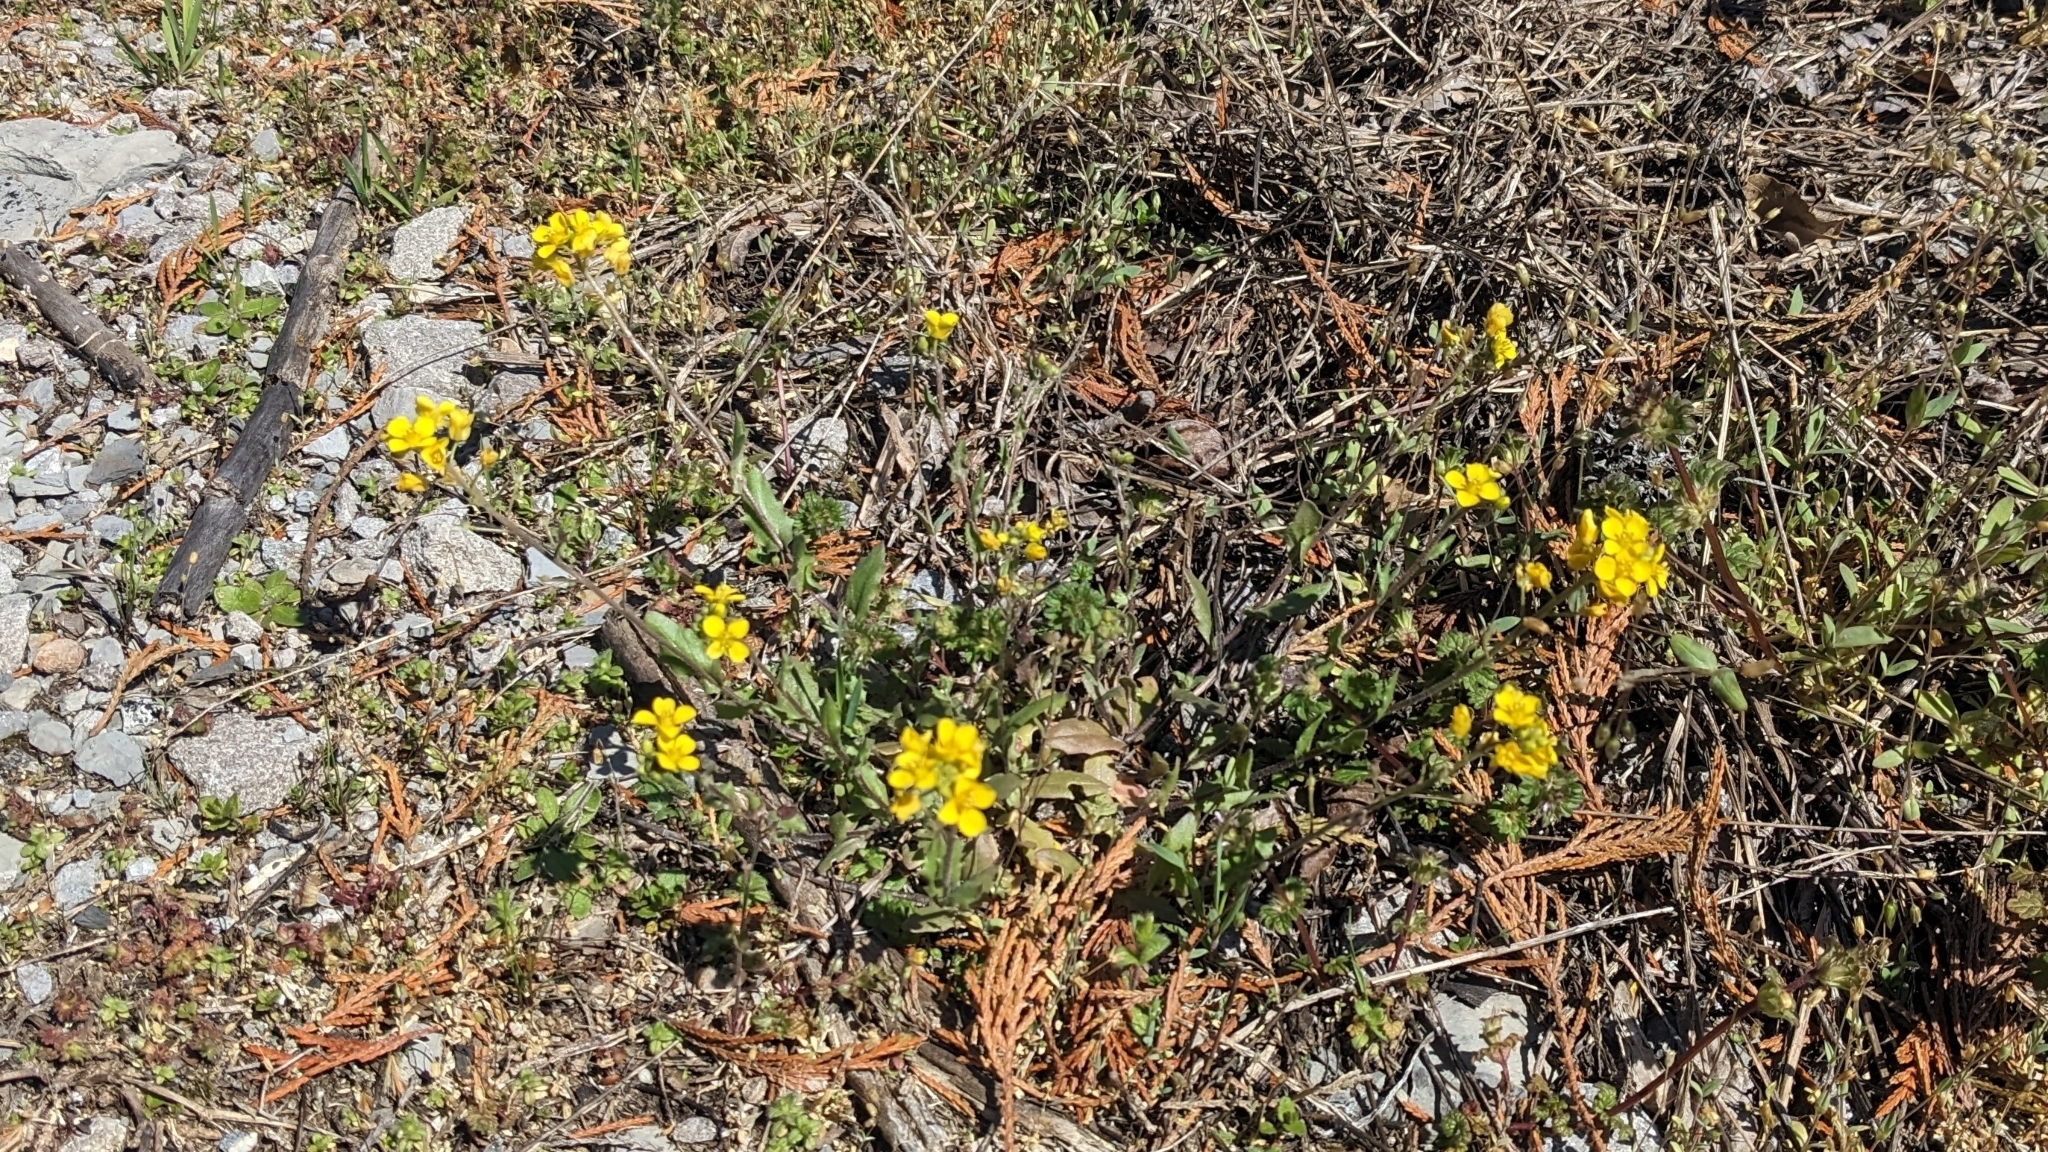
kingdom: Plantae
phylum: Tracheophyta
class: Magnoliopsida
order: Brassicales
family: Brassicaceae
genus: Paysonia
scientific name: Paysonia lescurii
